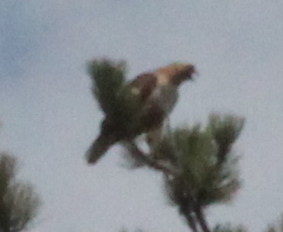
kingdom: Animalia
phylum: Chordata
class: Aves
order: Accipitriformes
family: Accipitridae
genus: Buteo
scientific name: Buteo jamaicensis
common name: Red-tailed hawk
